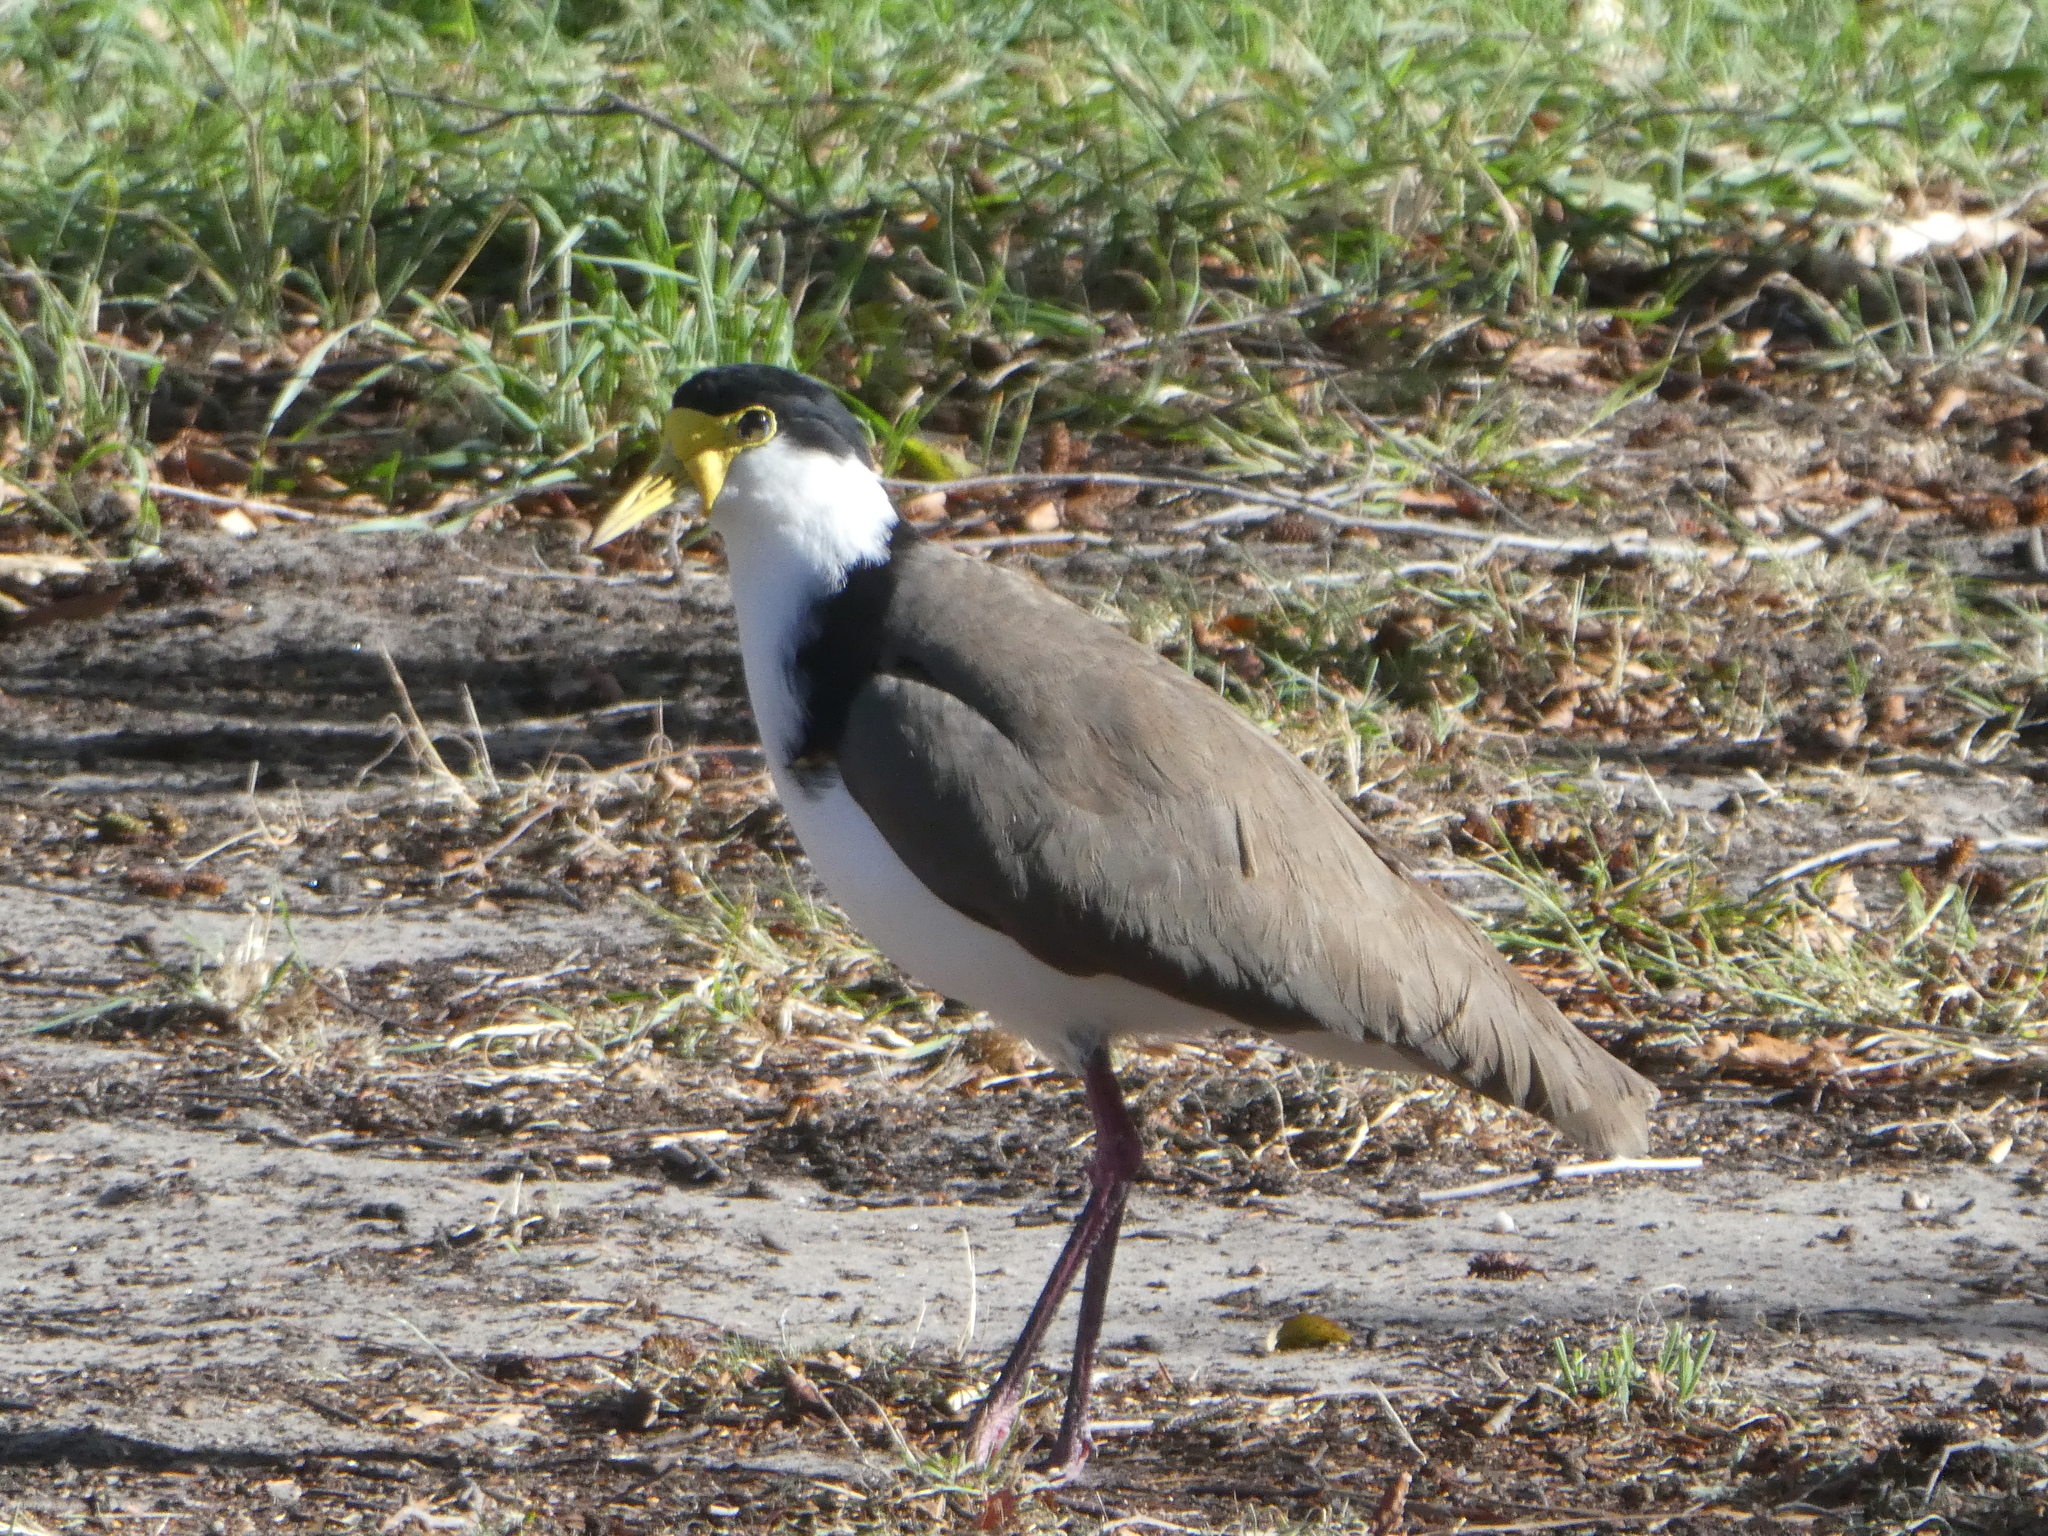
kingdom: Animalia
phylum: Chordata
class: Aves
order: Charadriiformes
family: Charadriidae
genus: Vanellus
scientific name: Vanellus miles
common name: Masked lapwing
